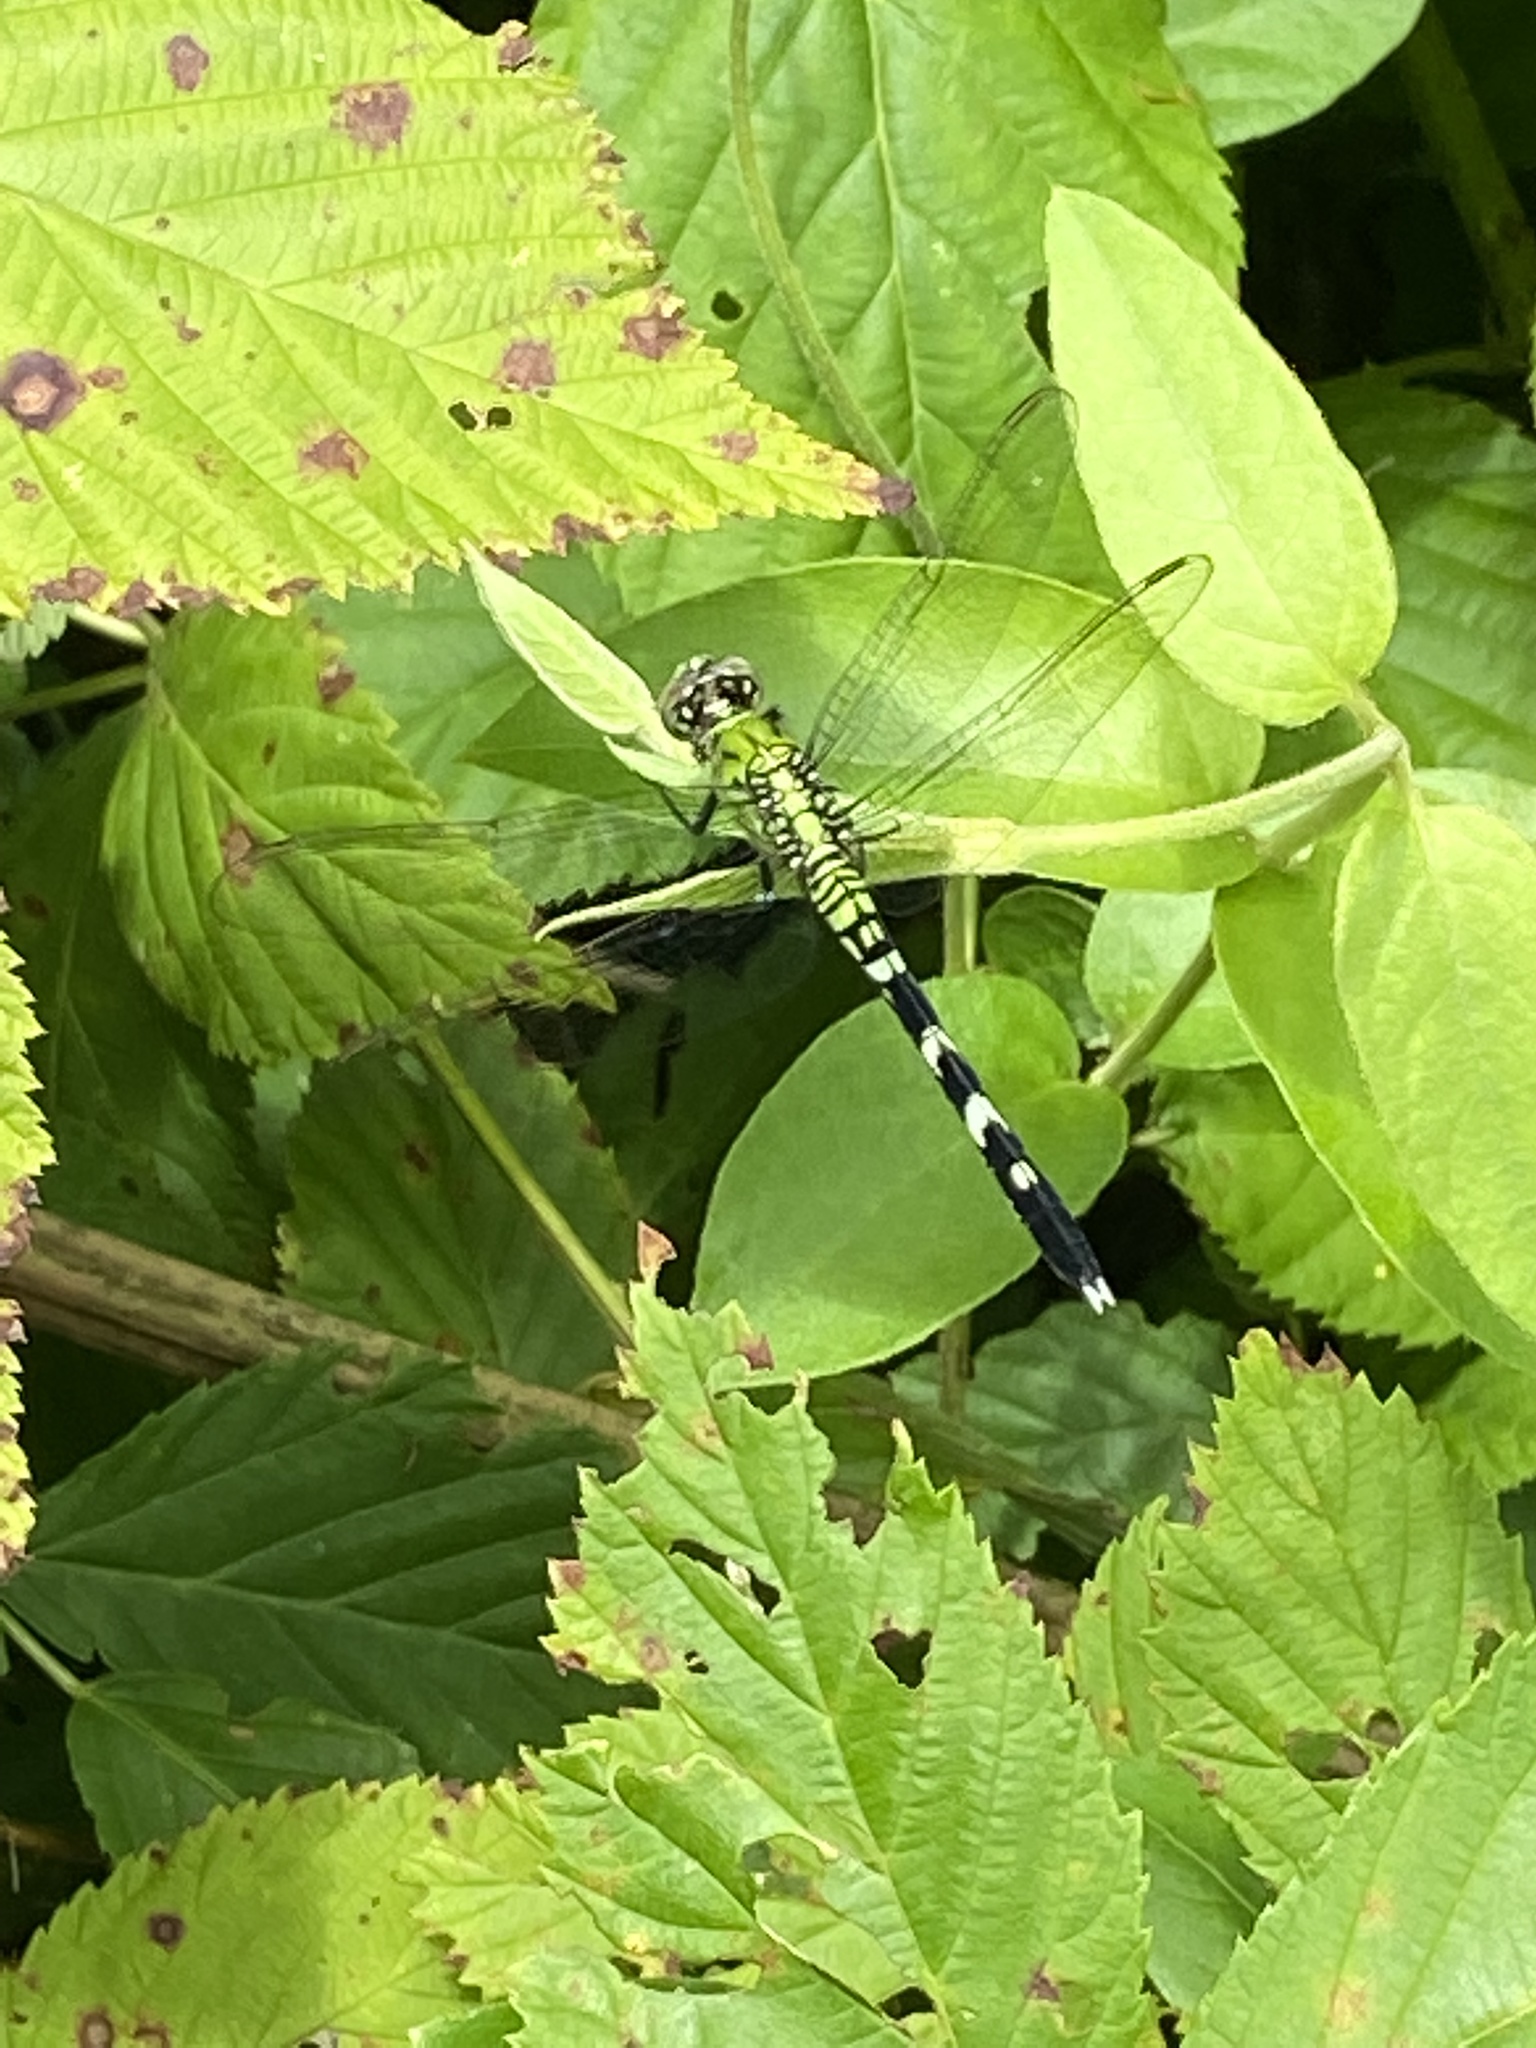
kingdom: Animalia
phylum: Arthropoda
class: Insecta
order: Odonata
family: Libellulidae
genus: Erythemis
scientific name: Erythemis simplicicollis
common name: Eastern pondhawk
